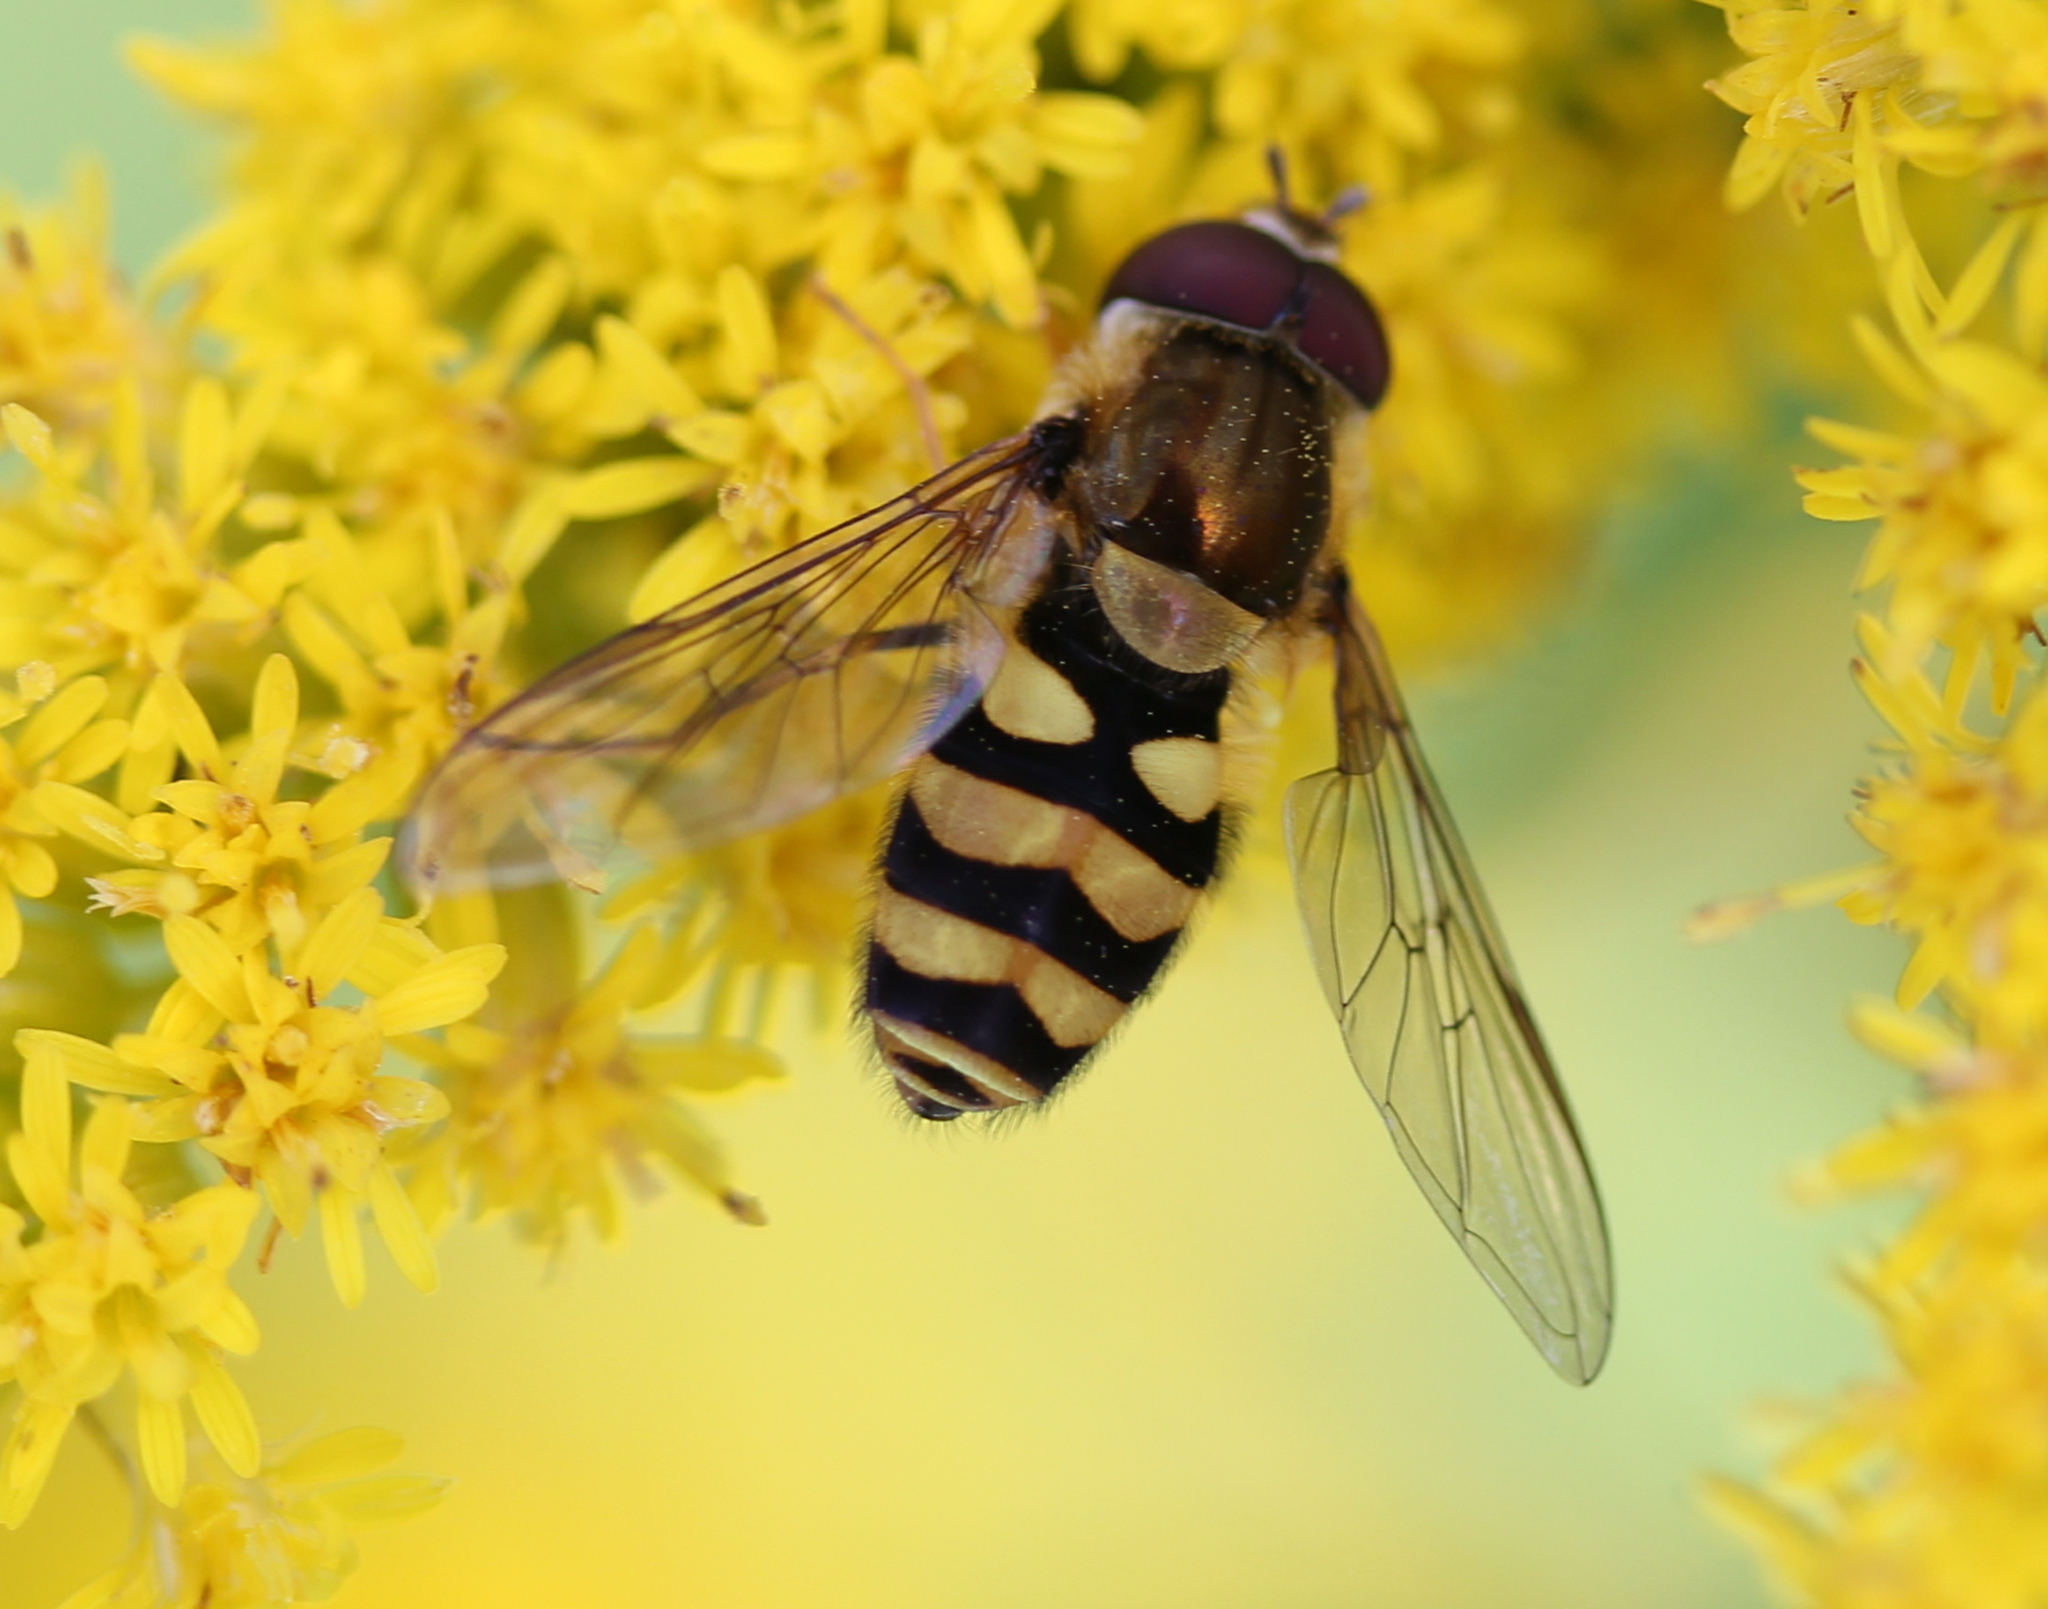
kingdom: Animalia
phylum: Arthropoda
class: Insecta
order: Diptera
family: Syrphidae
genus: Syrphus
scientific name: Syrphus
